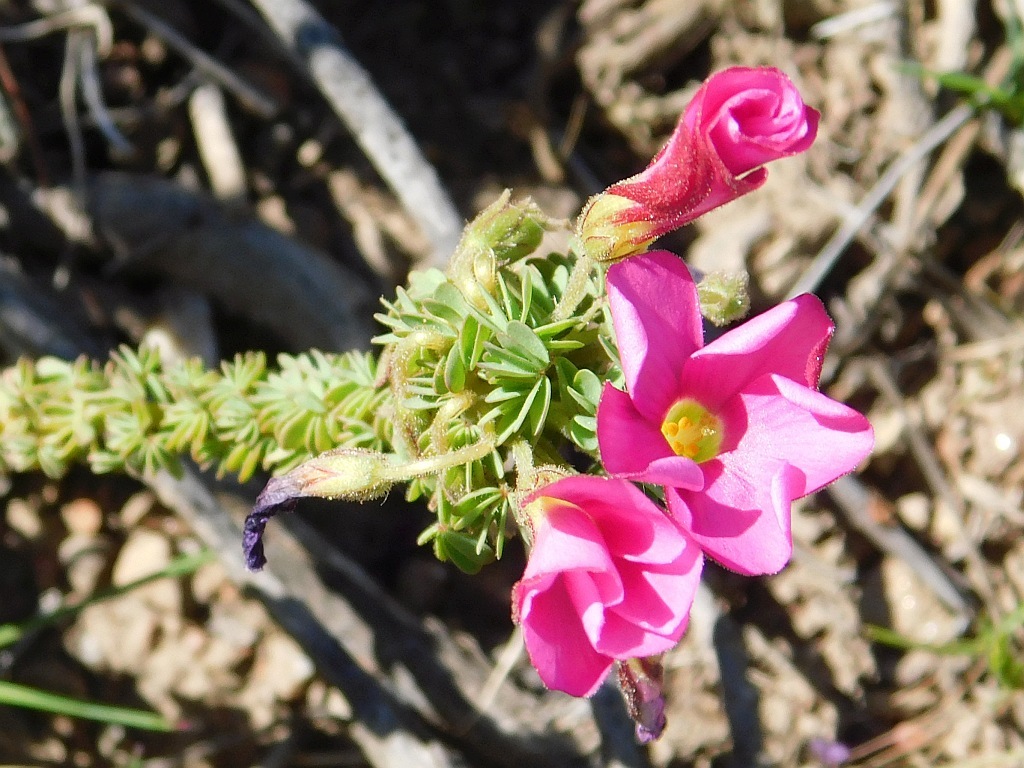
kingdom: Plantae
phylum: Tracheophyta
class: Magnoliopsida
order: Oxalidales
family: Oxalidaceae
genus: Oxalis
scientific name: Oxalis heterophylla
